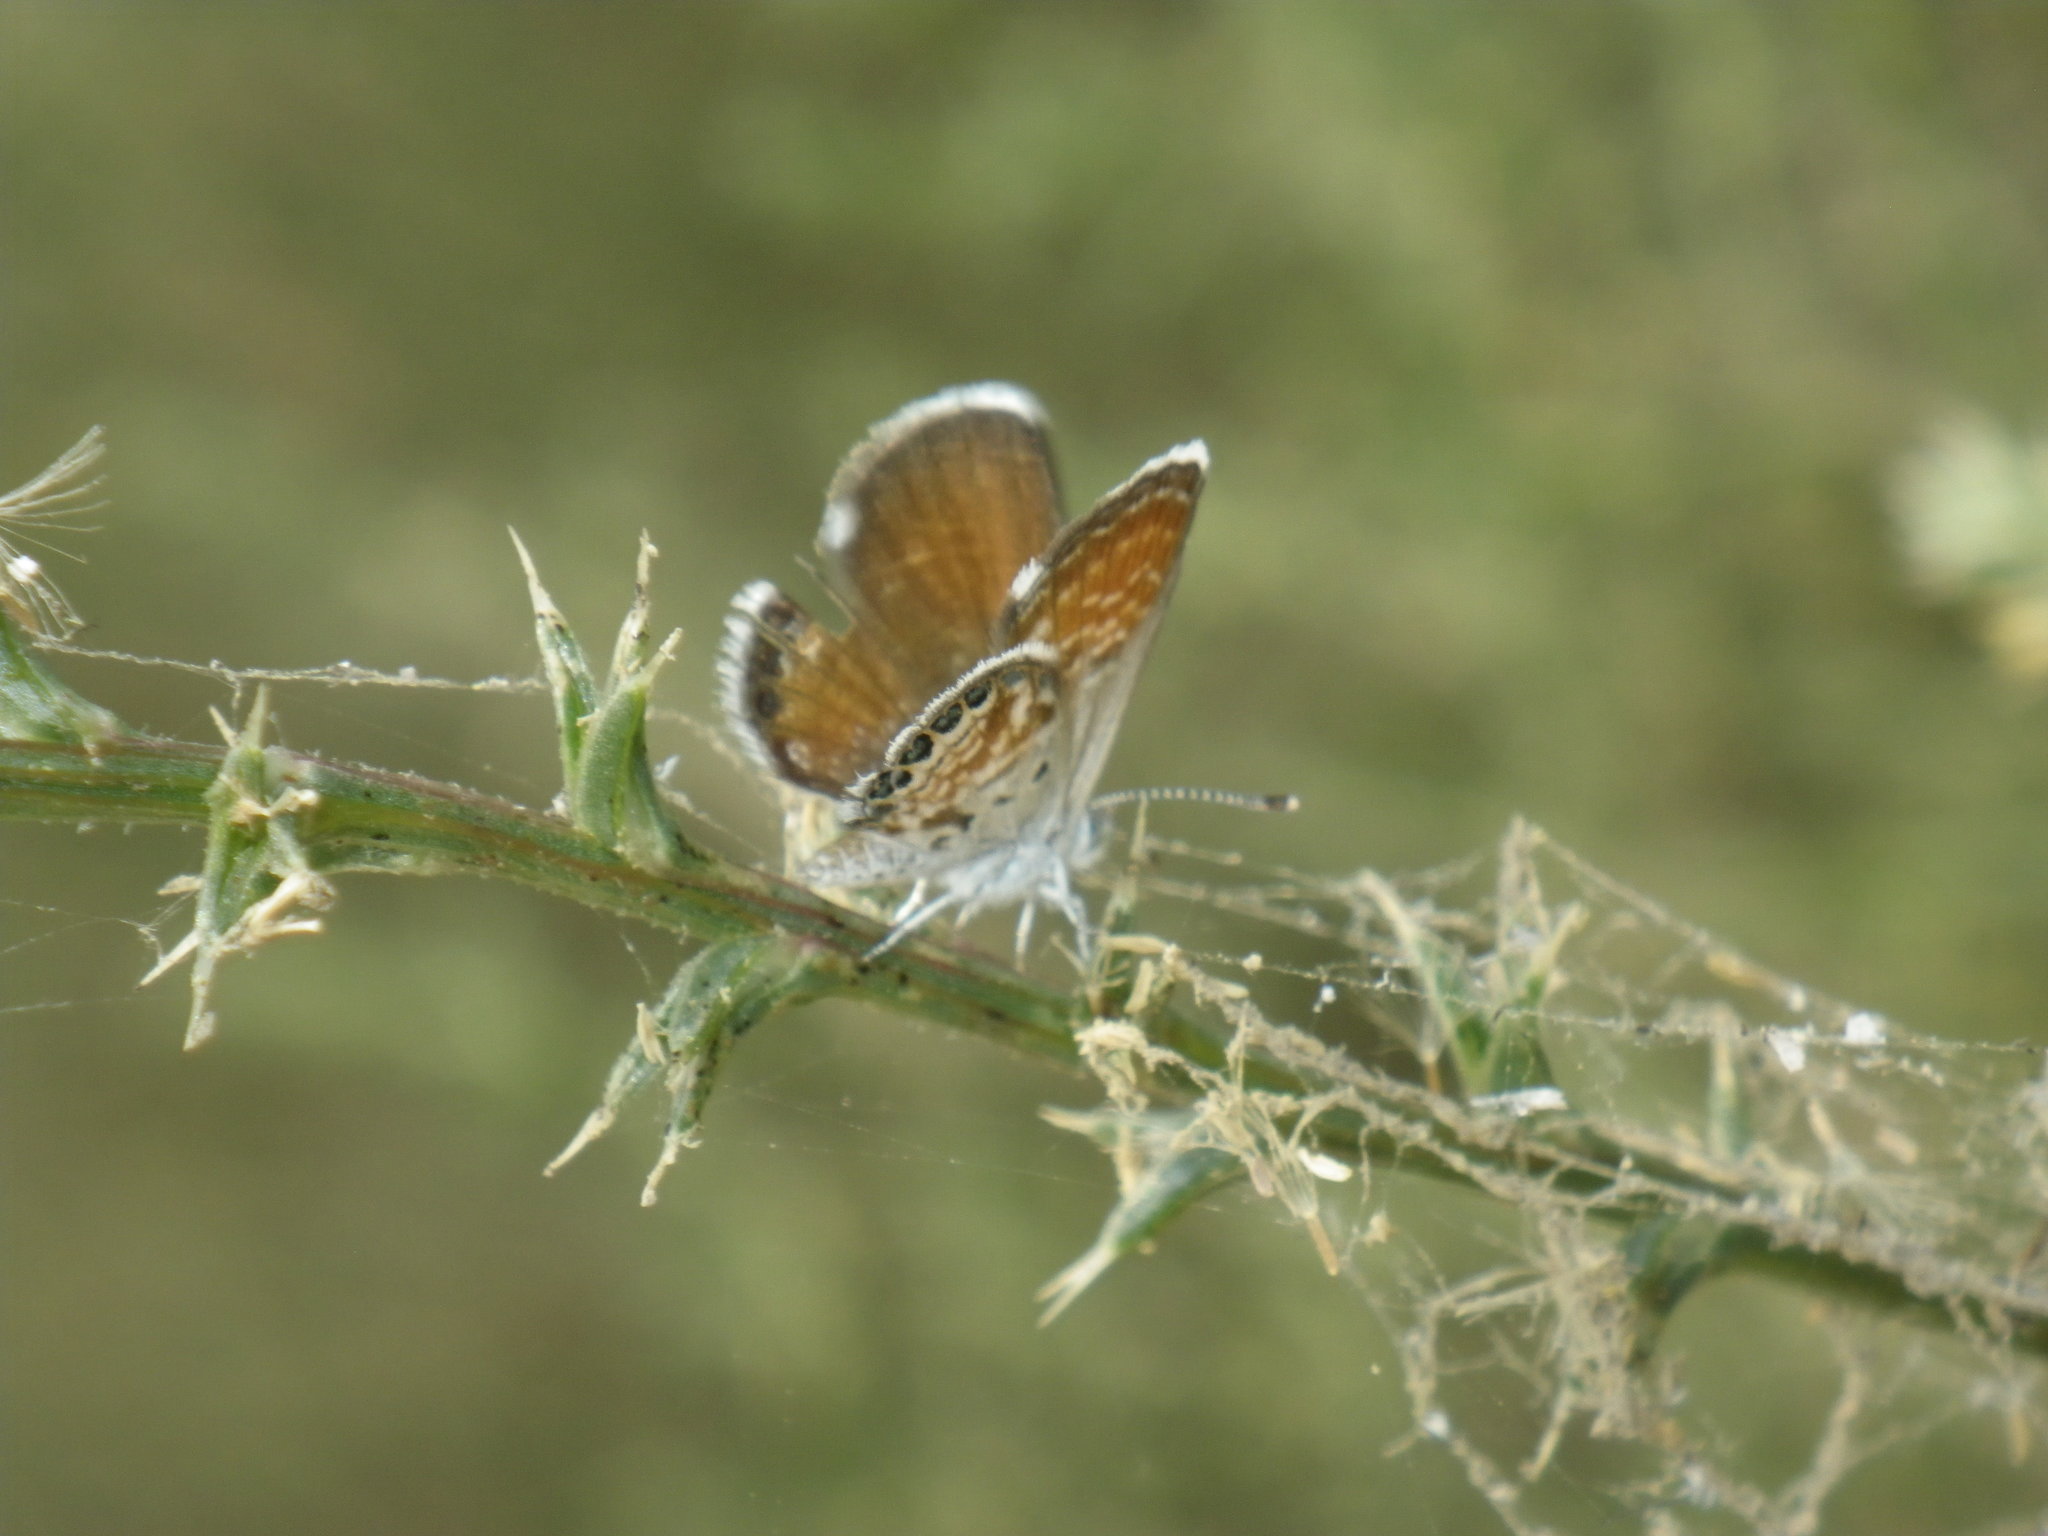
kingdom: Animalia
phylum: Arthropoda
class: Insecta
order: Lepidoptera
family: Lycaenidae
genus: Brephidium
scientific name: Brephidium exilis
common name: Pygmy blue
